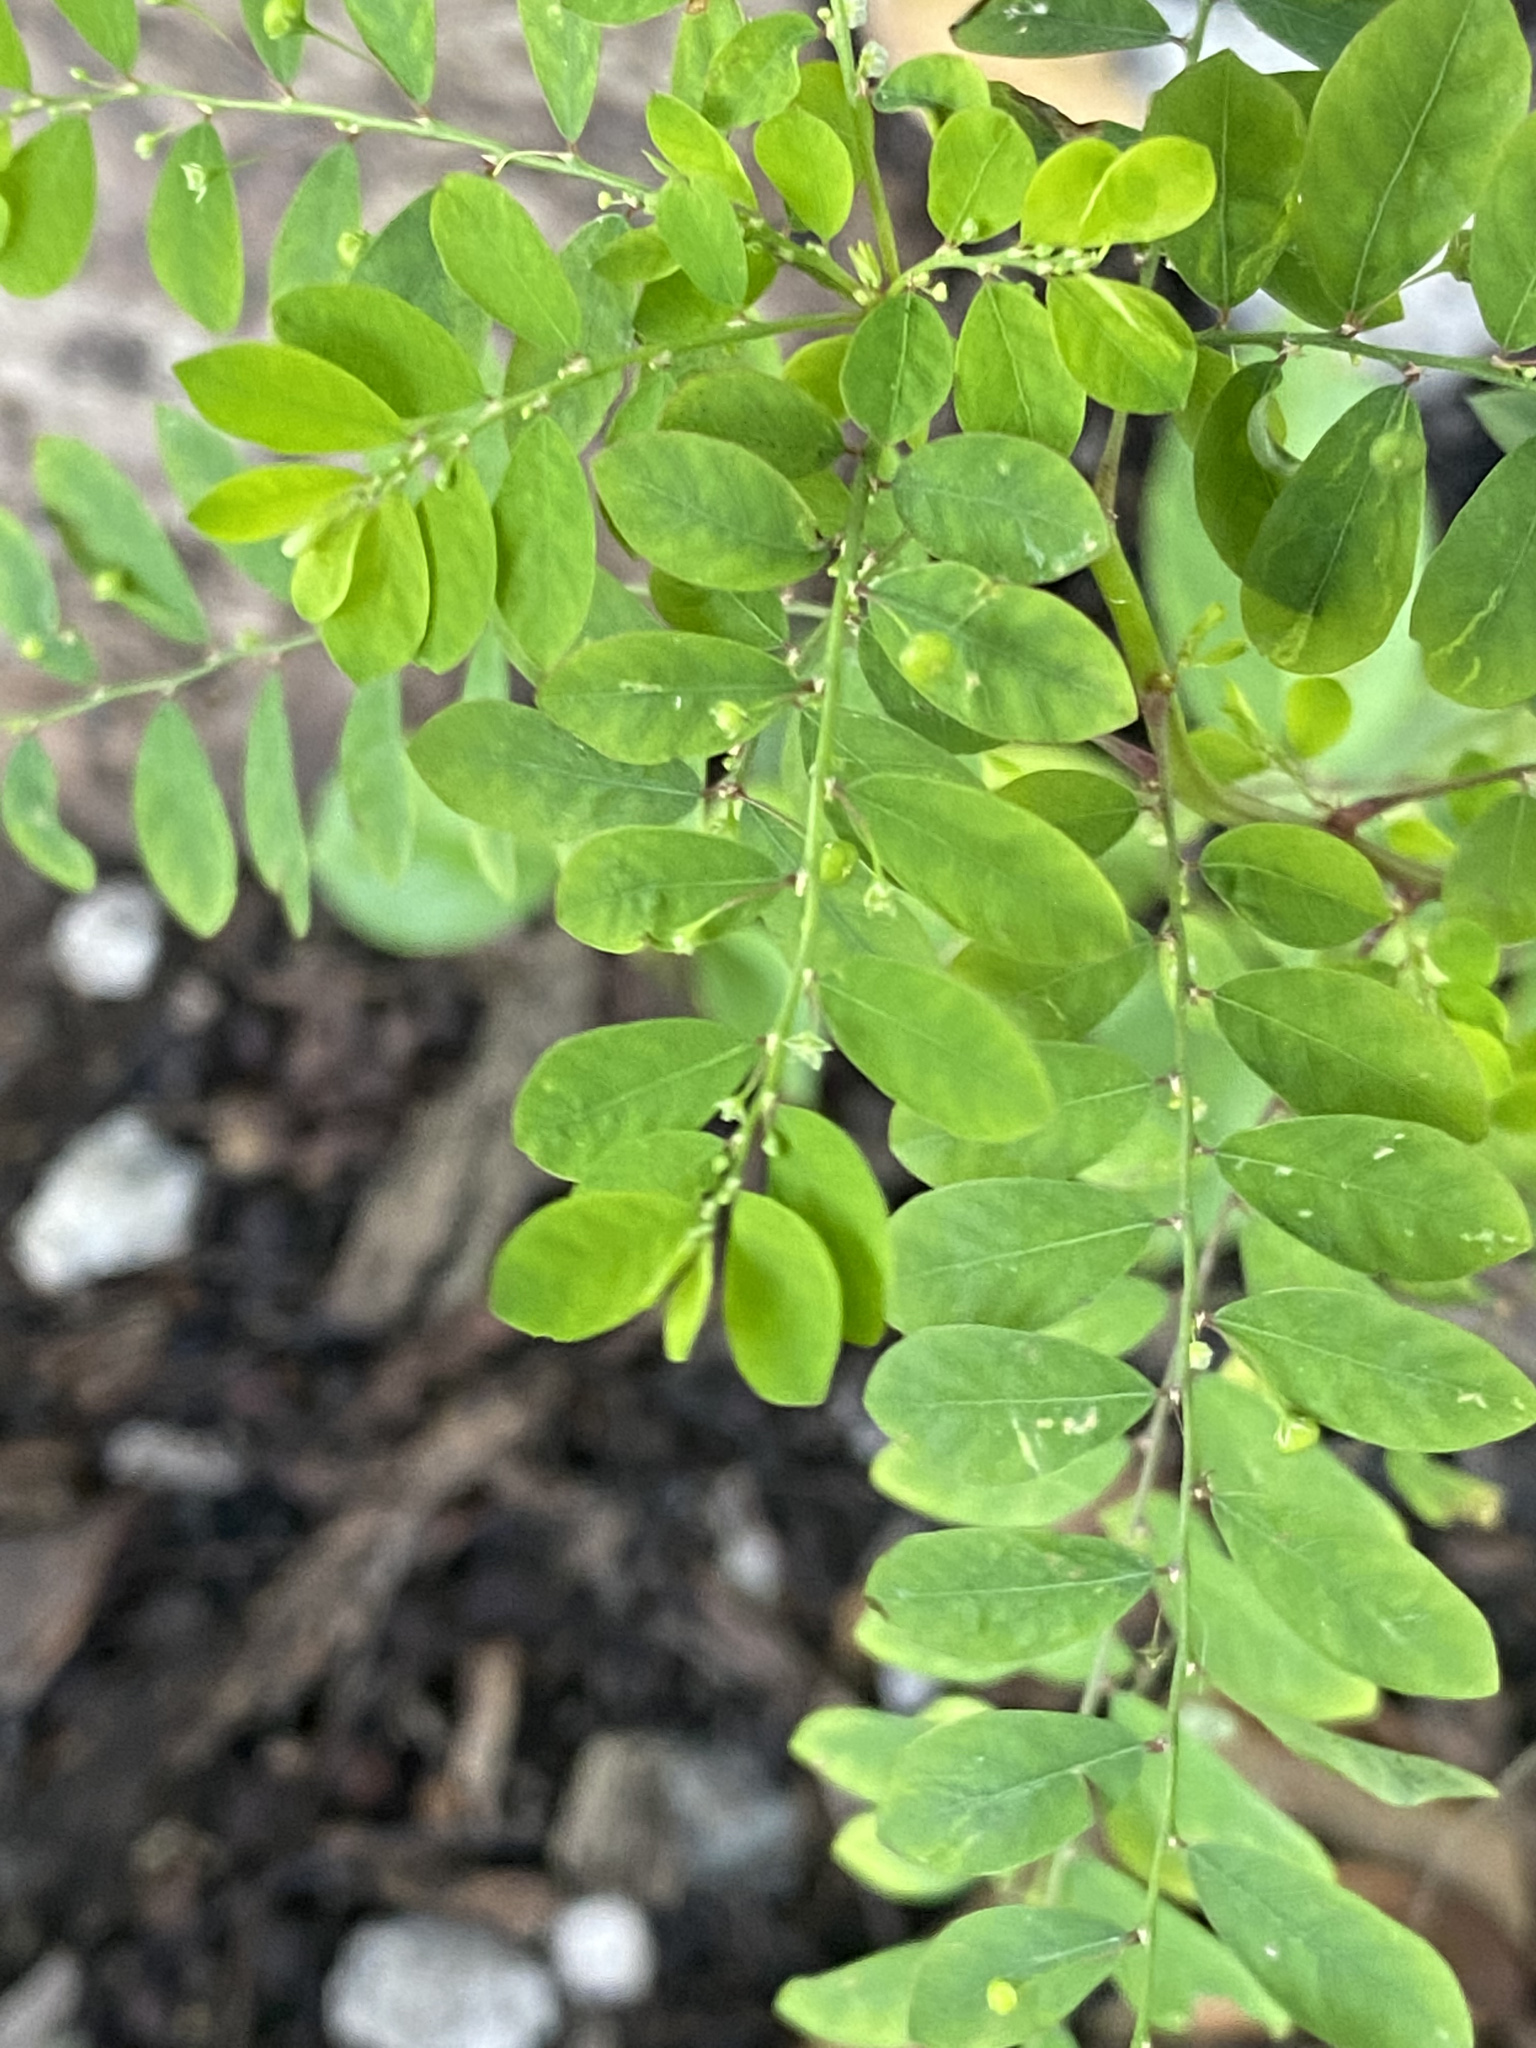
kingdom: Plantae
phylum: Tracheophyta
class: Magnoliopsida
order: Malpighiales
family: Phyllanthaceae
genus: Phyllanthus
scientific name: Phyllanthus tenellus
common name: Mascarene island leaf-flower
